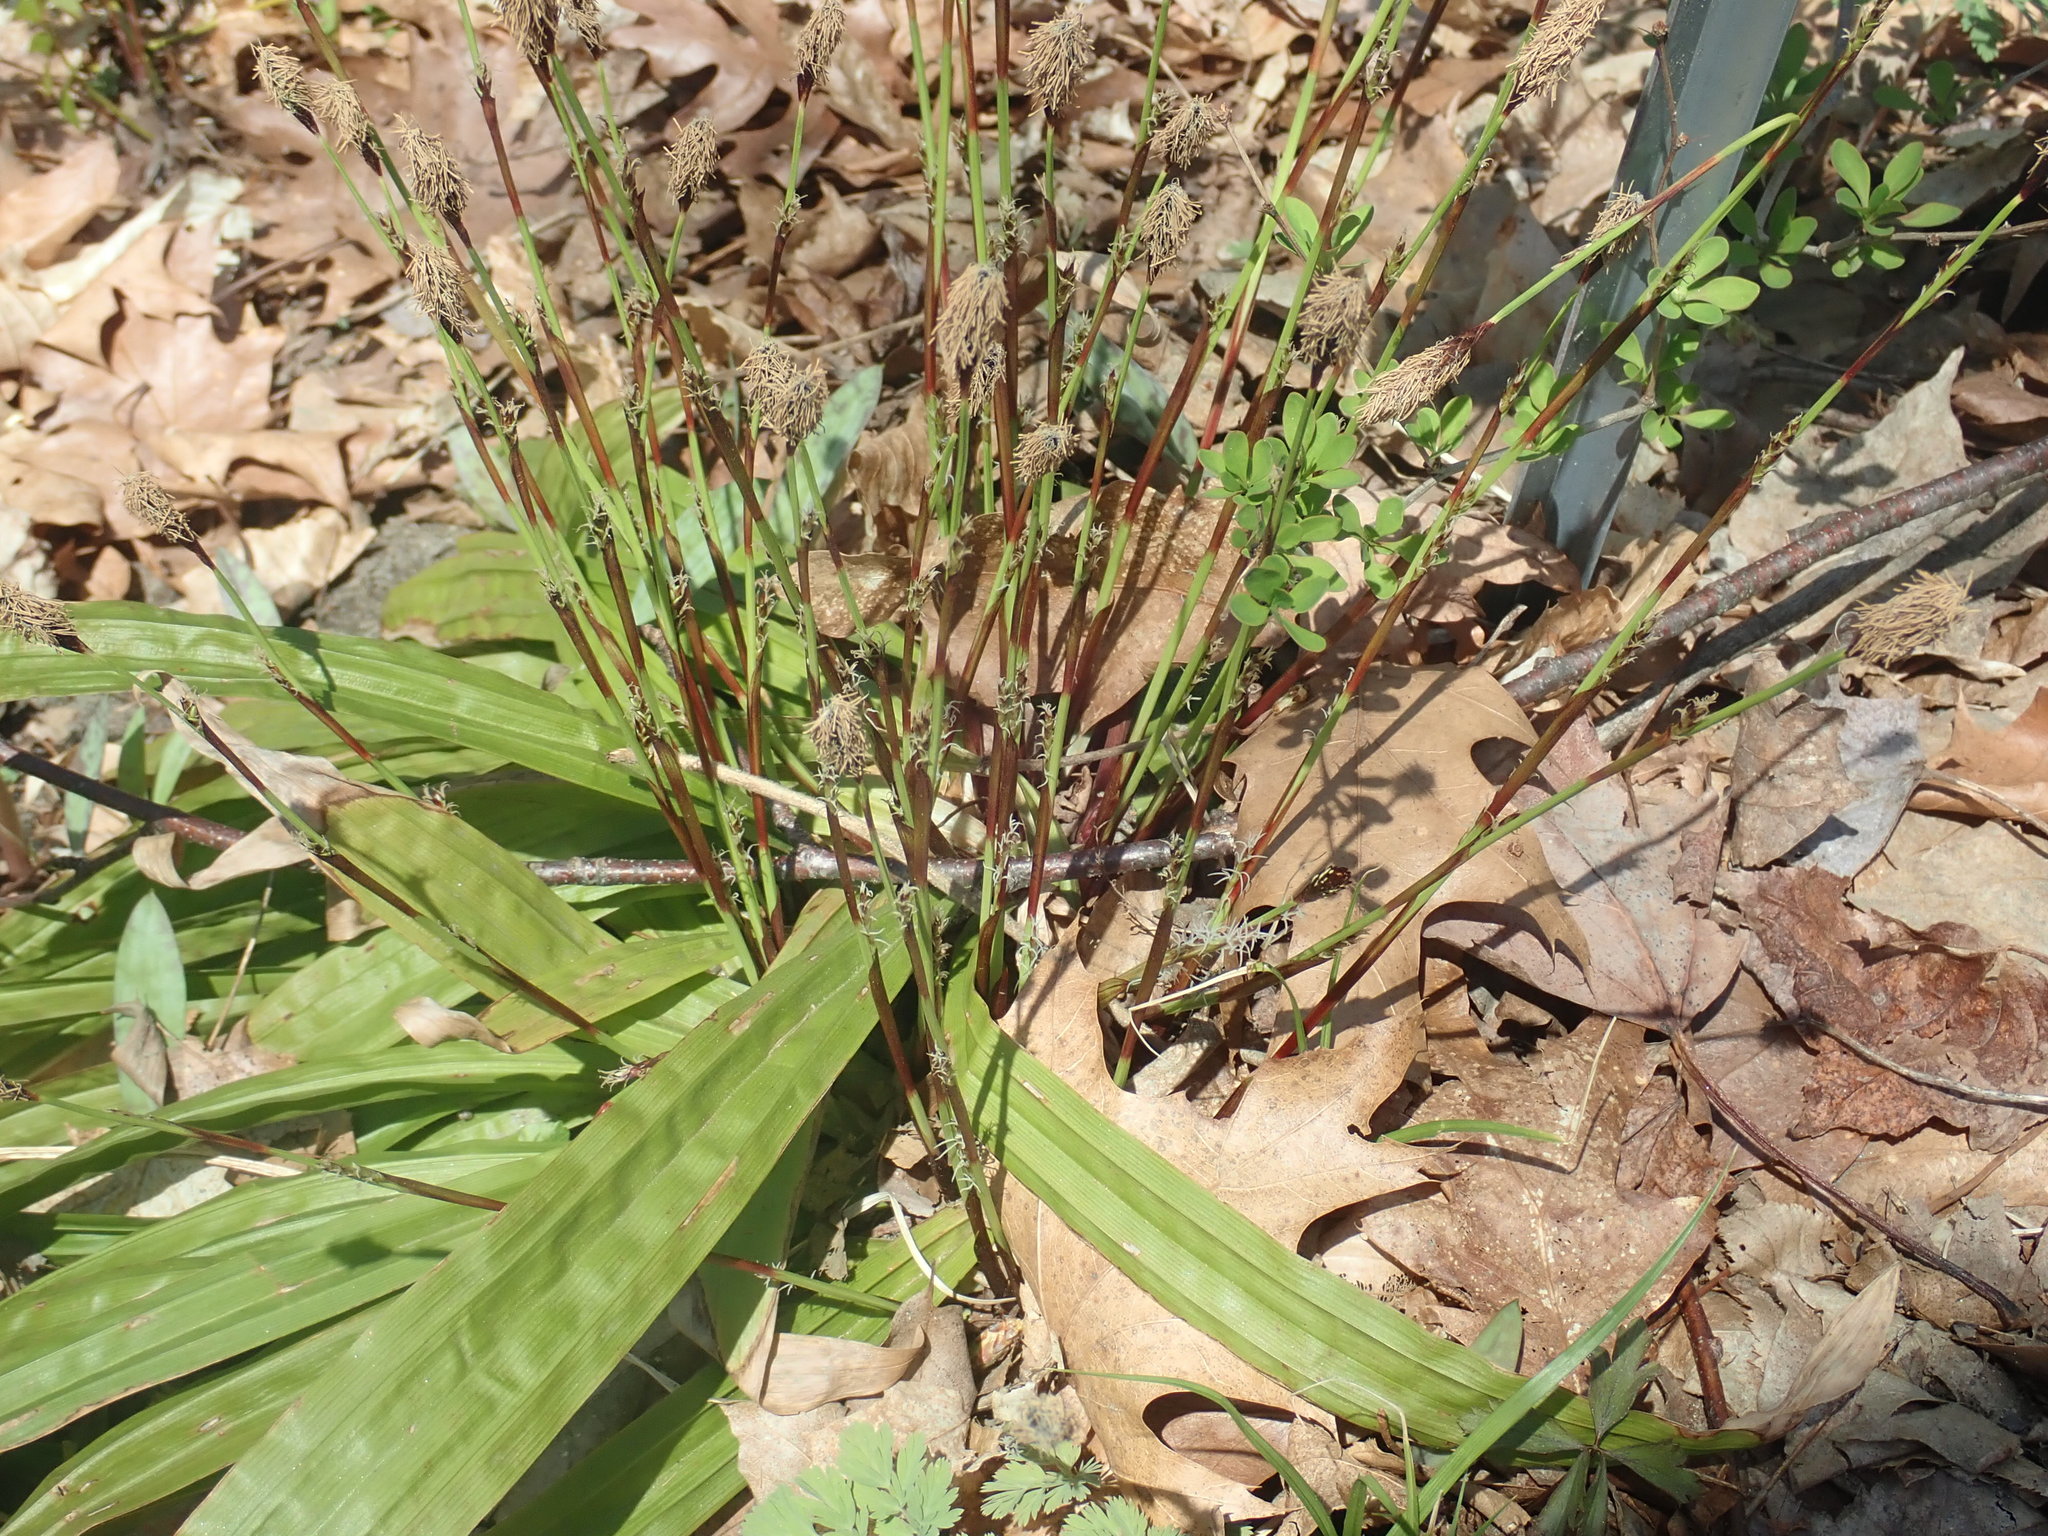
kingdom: Plantae
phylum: Tracheophyta
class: Liliopsida
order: Poales
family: Cyperaceae
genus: Carex
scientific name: Carex plantaginea
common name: Plantain-leaved sedge
